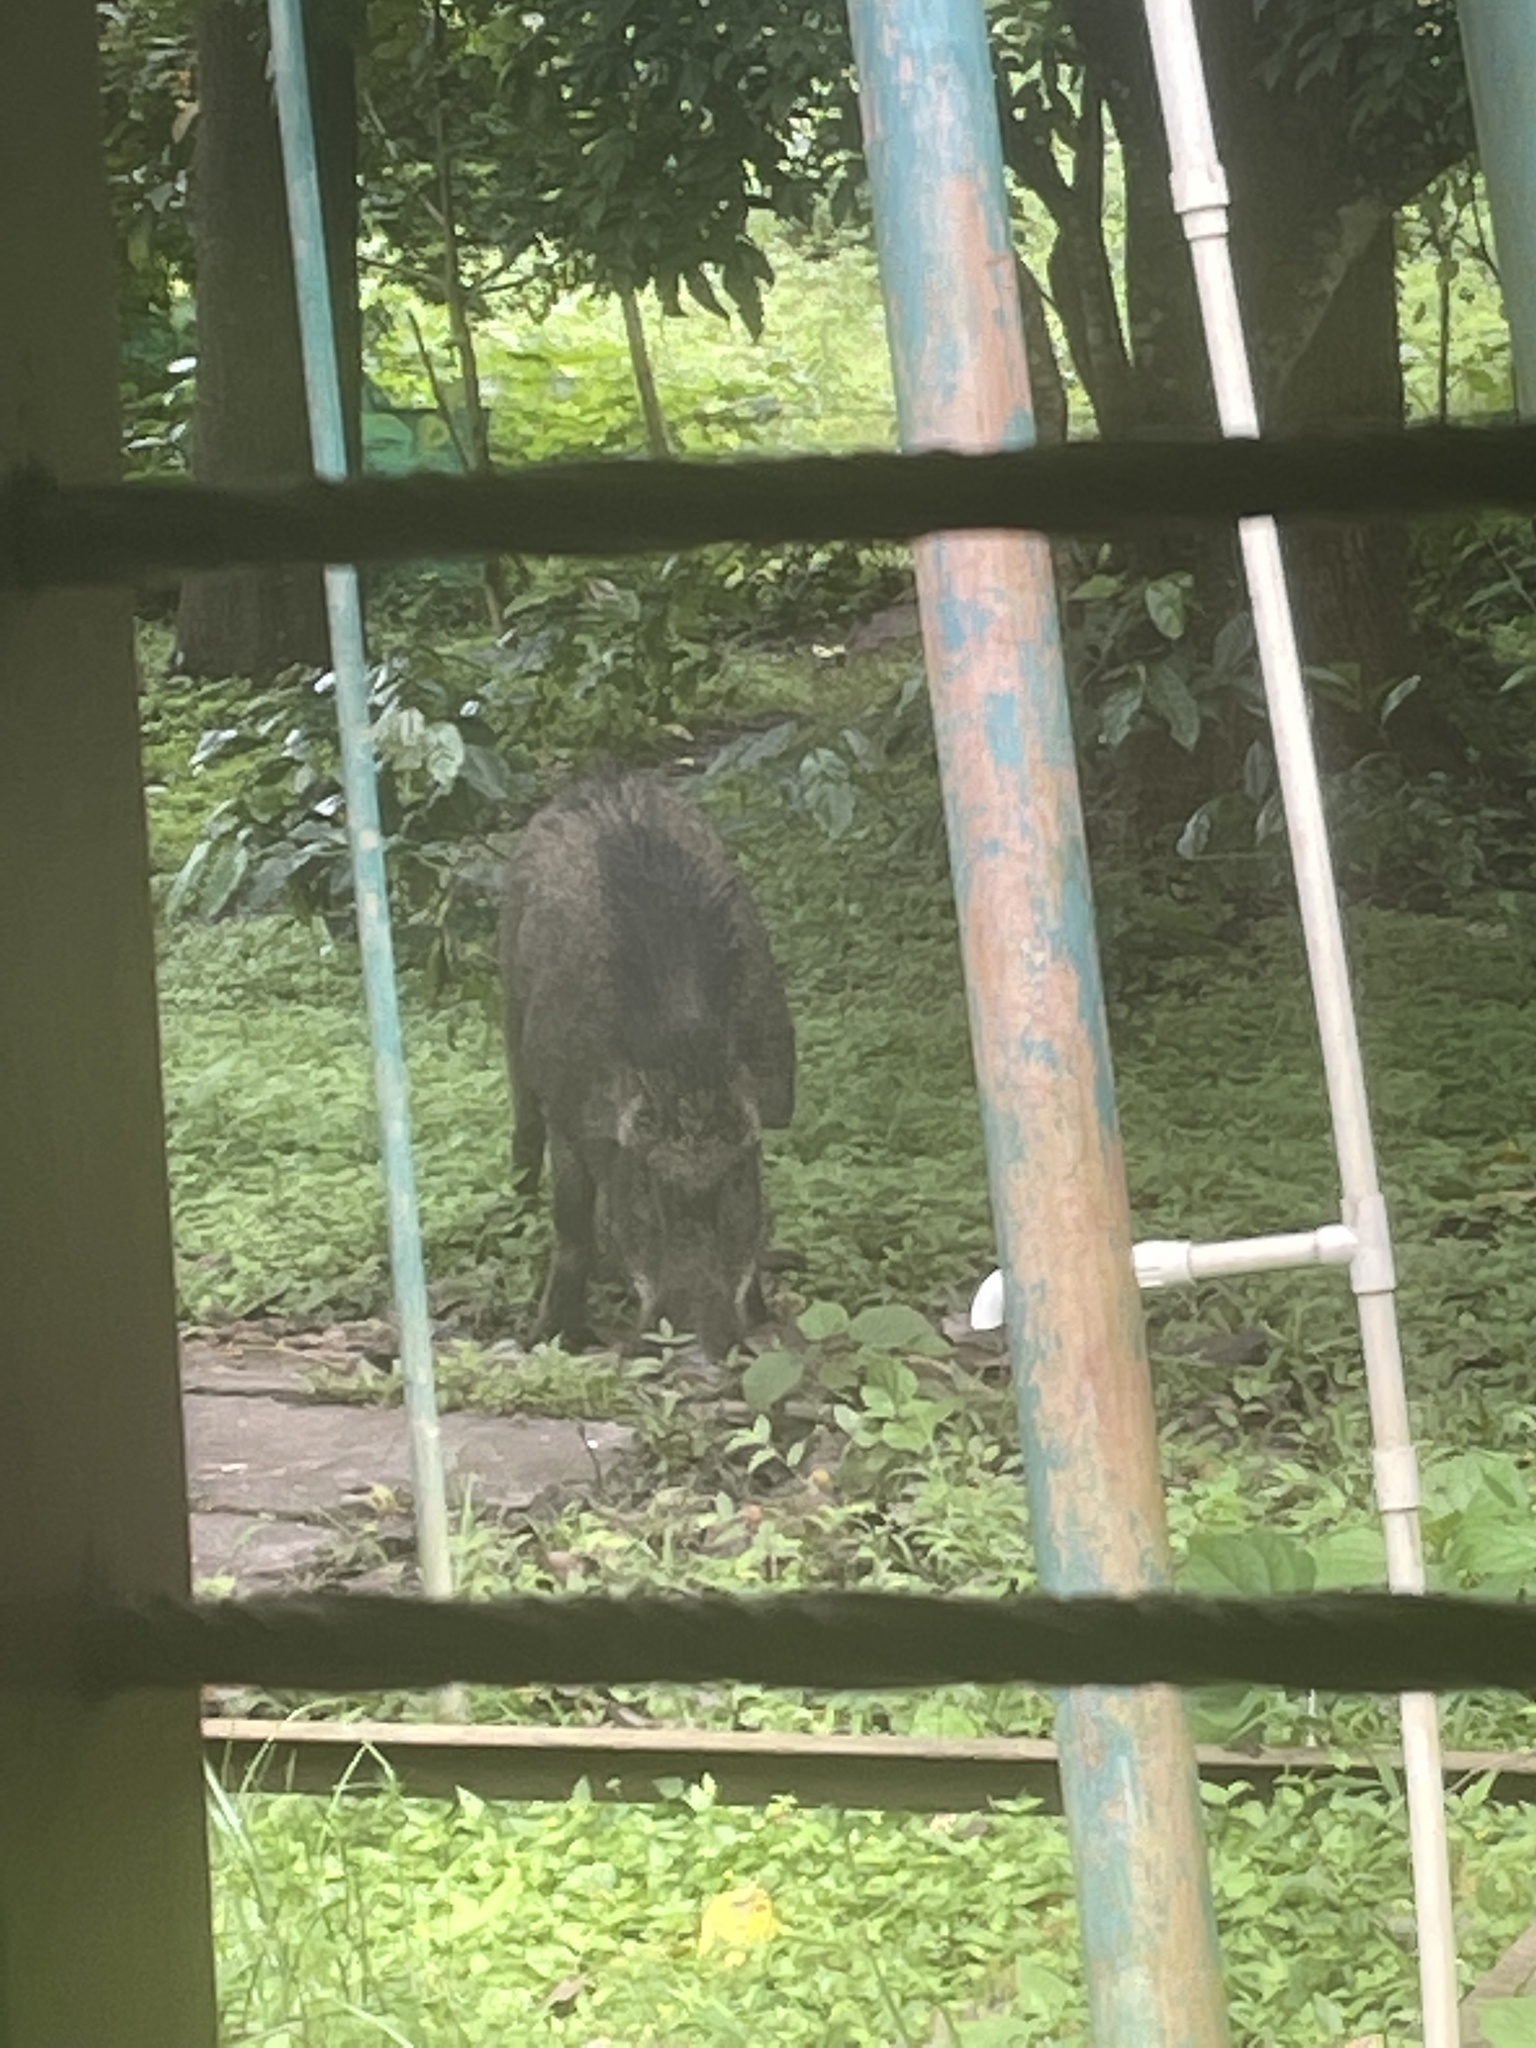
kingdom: Animalia
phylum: Chordata
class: Mammalia
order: Artiodactyla
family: Suidae
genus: Sus
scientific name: Sus scrofa
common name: Wild boar
